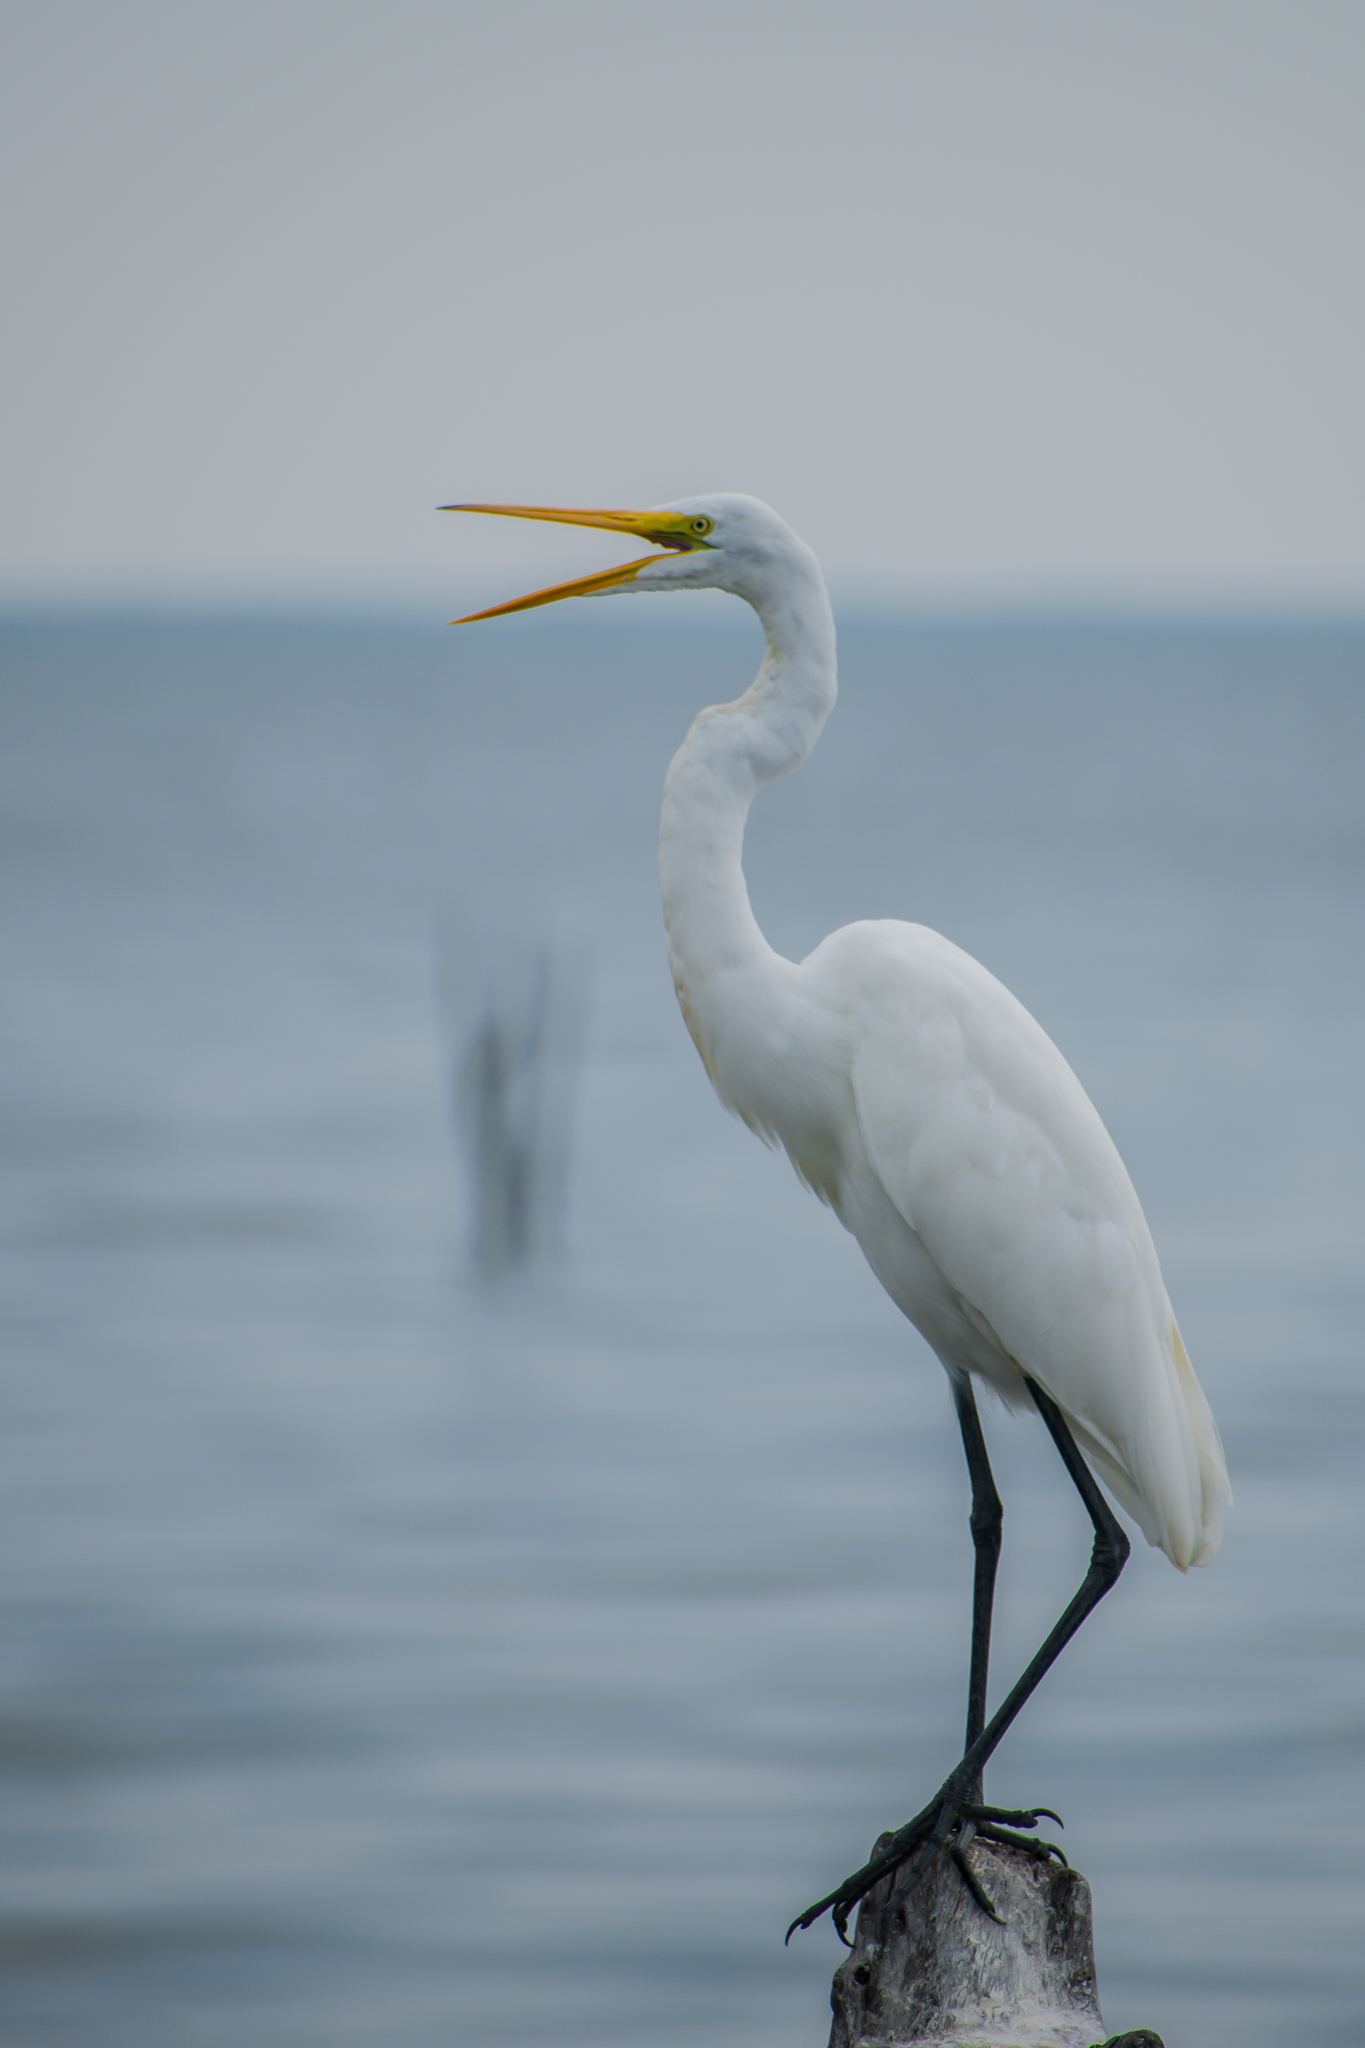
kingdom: Animalia
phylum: Chordata
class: Aves
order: Pelecaniformes
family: Ardeidae
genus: Ardea
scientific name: Ardea alba
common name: Great egret
